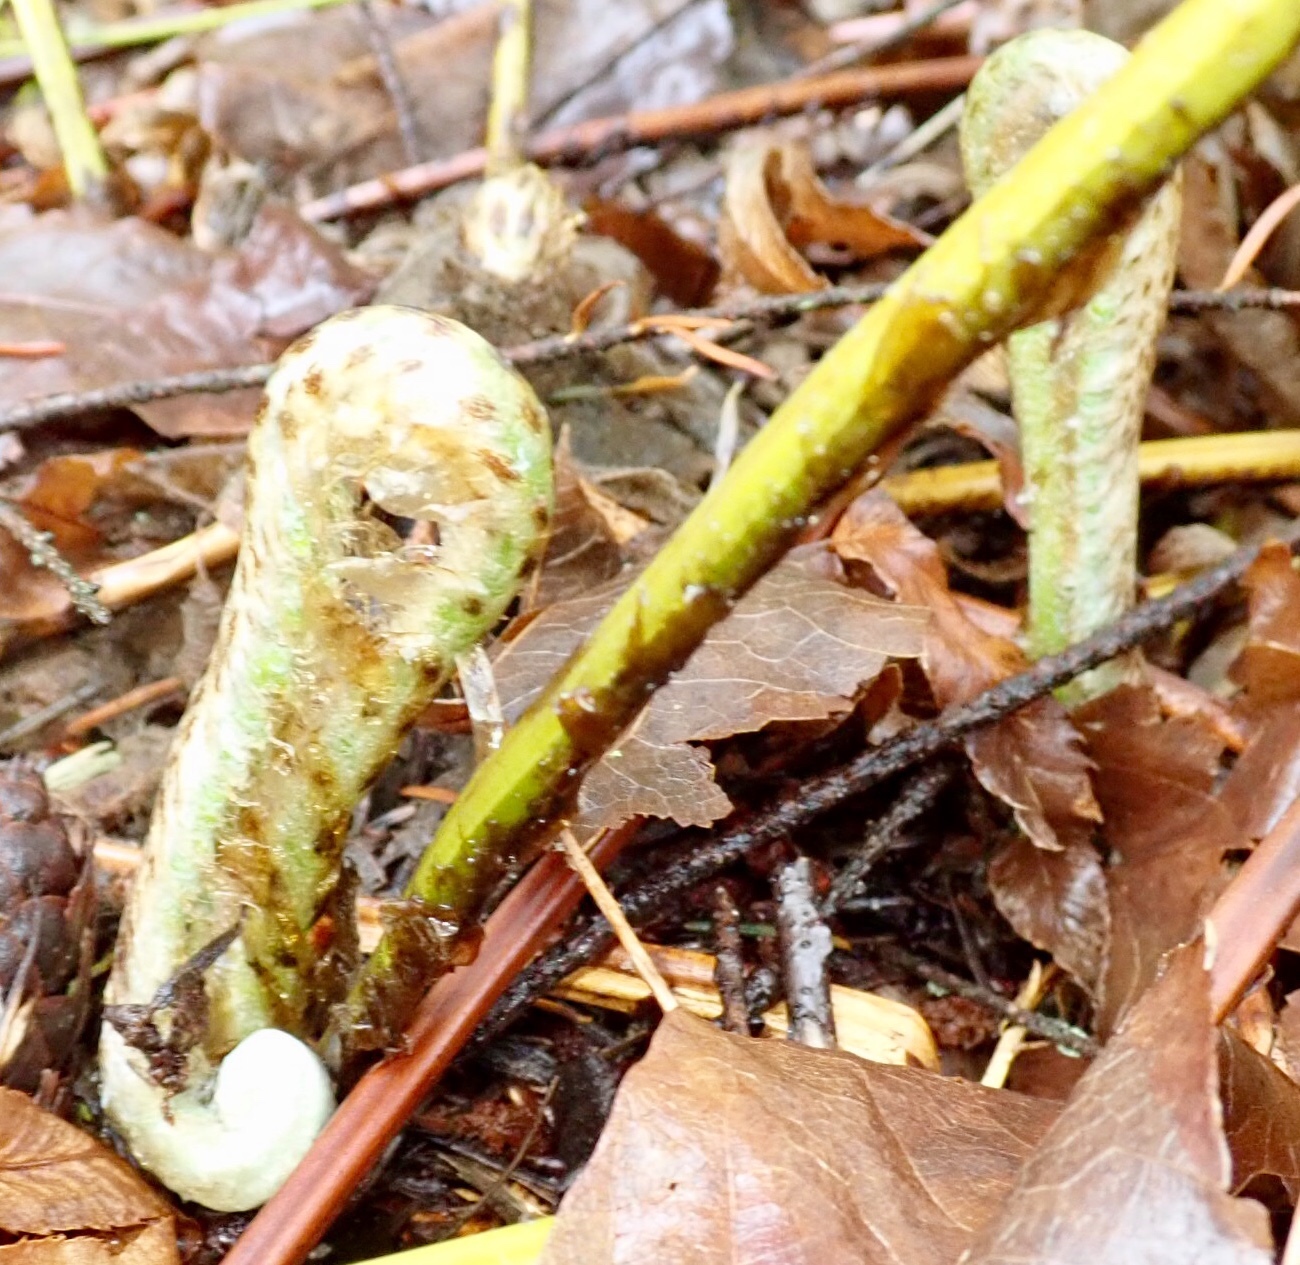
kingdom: Plantae
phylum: Tracheophyta
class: Polypodiopsida
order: Polypodiales
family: Dryopteridaceae
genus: Polystichum
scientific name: Polystichum munitum
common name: Western sword-fern
